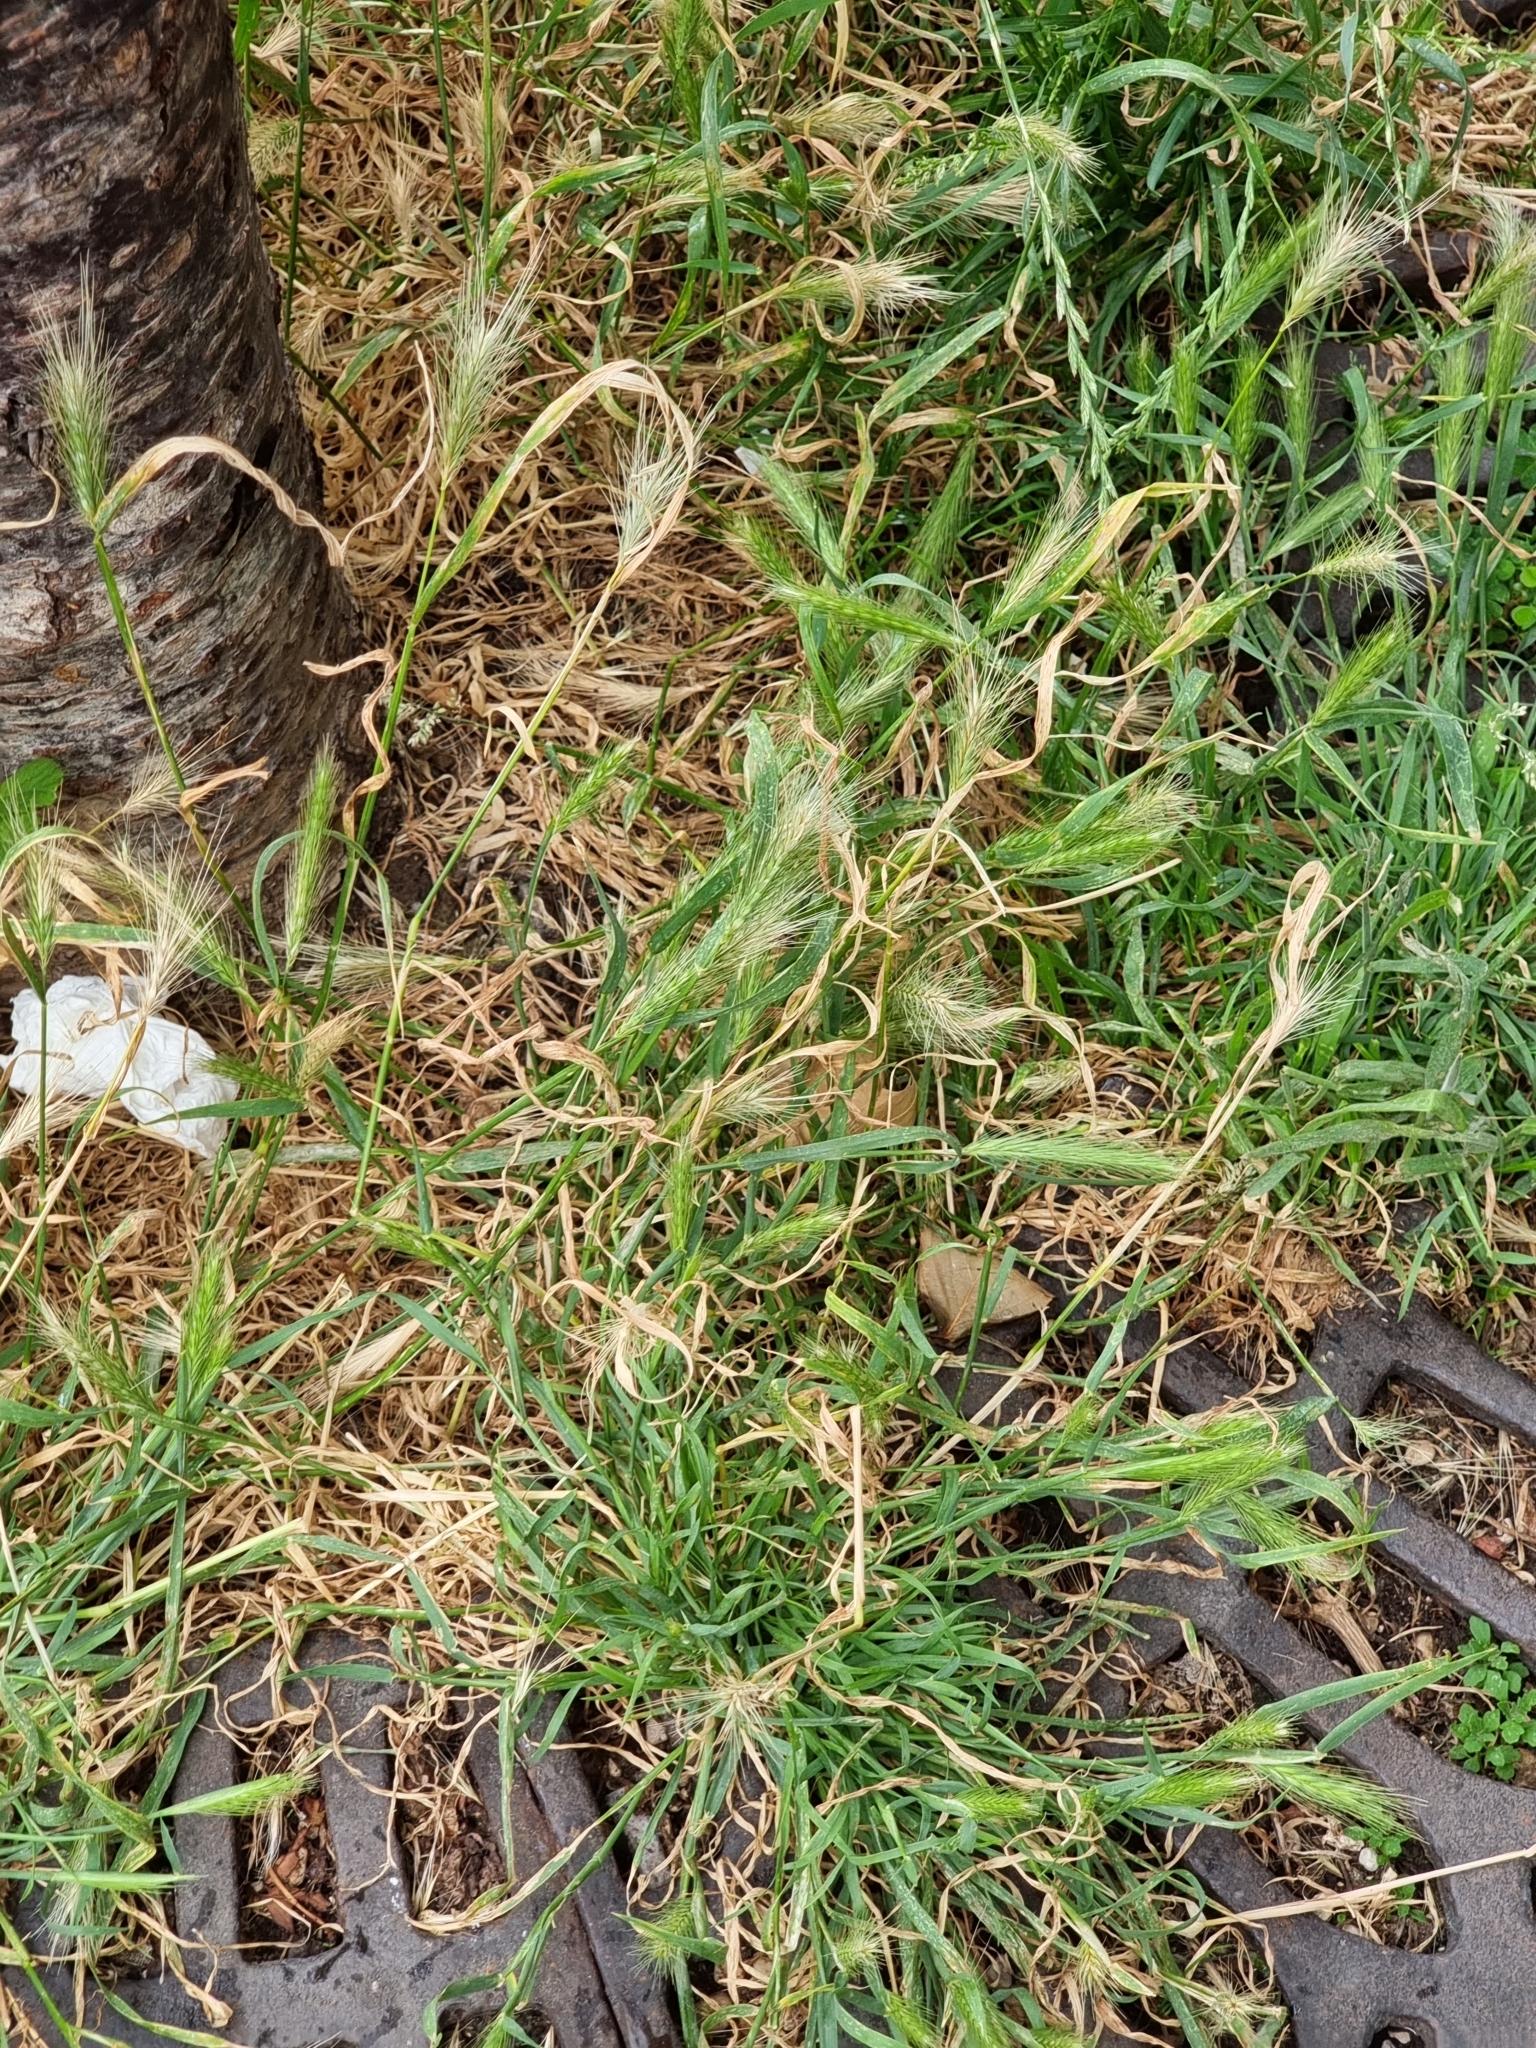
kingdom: Plantae
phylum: Tracheophyta
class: Liliopsida
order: Poales
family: Poaceae
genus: Hordeum
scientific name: Hordeum murinum
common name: Wall barley
